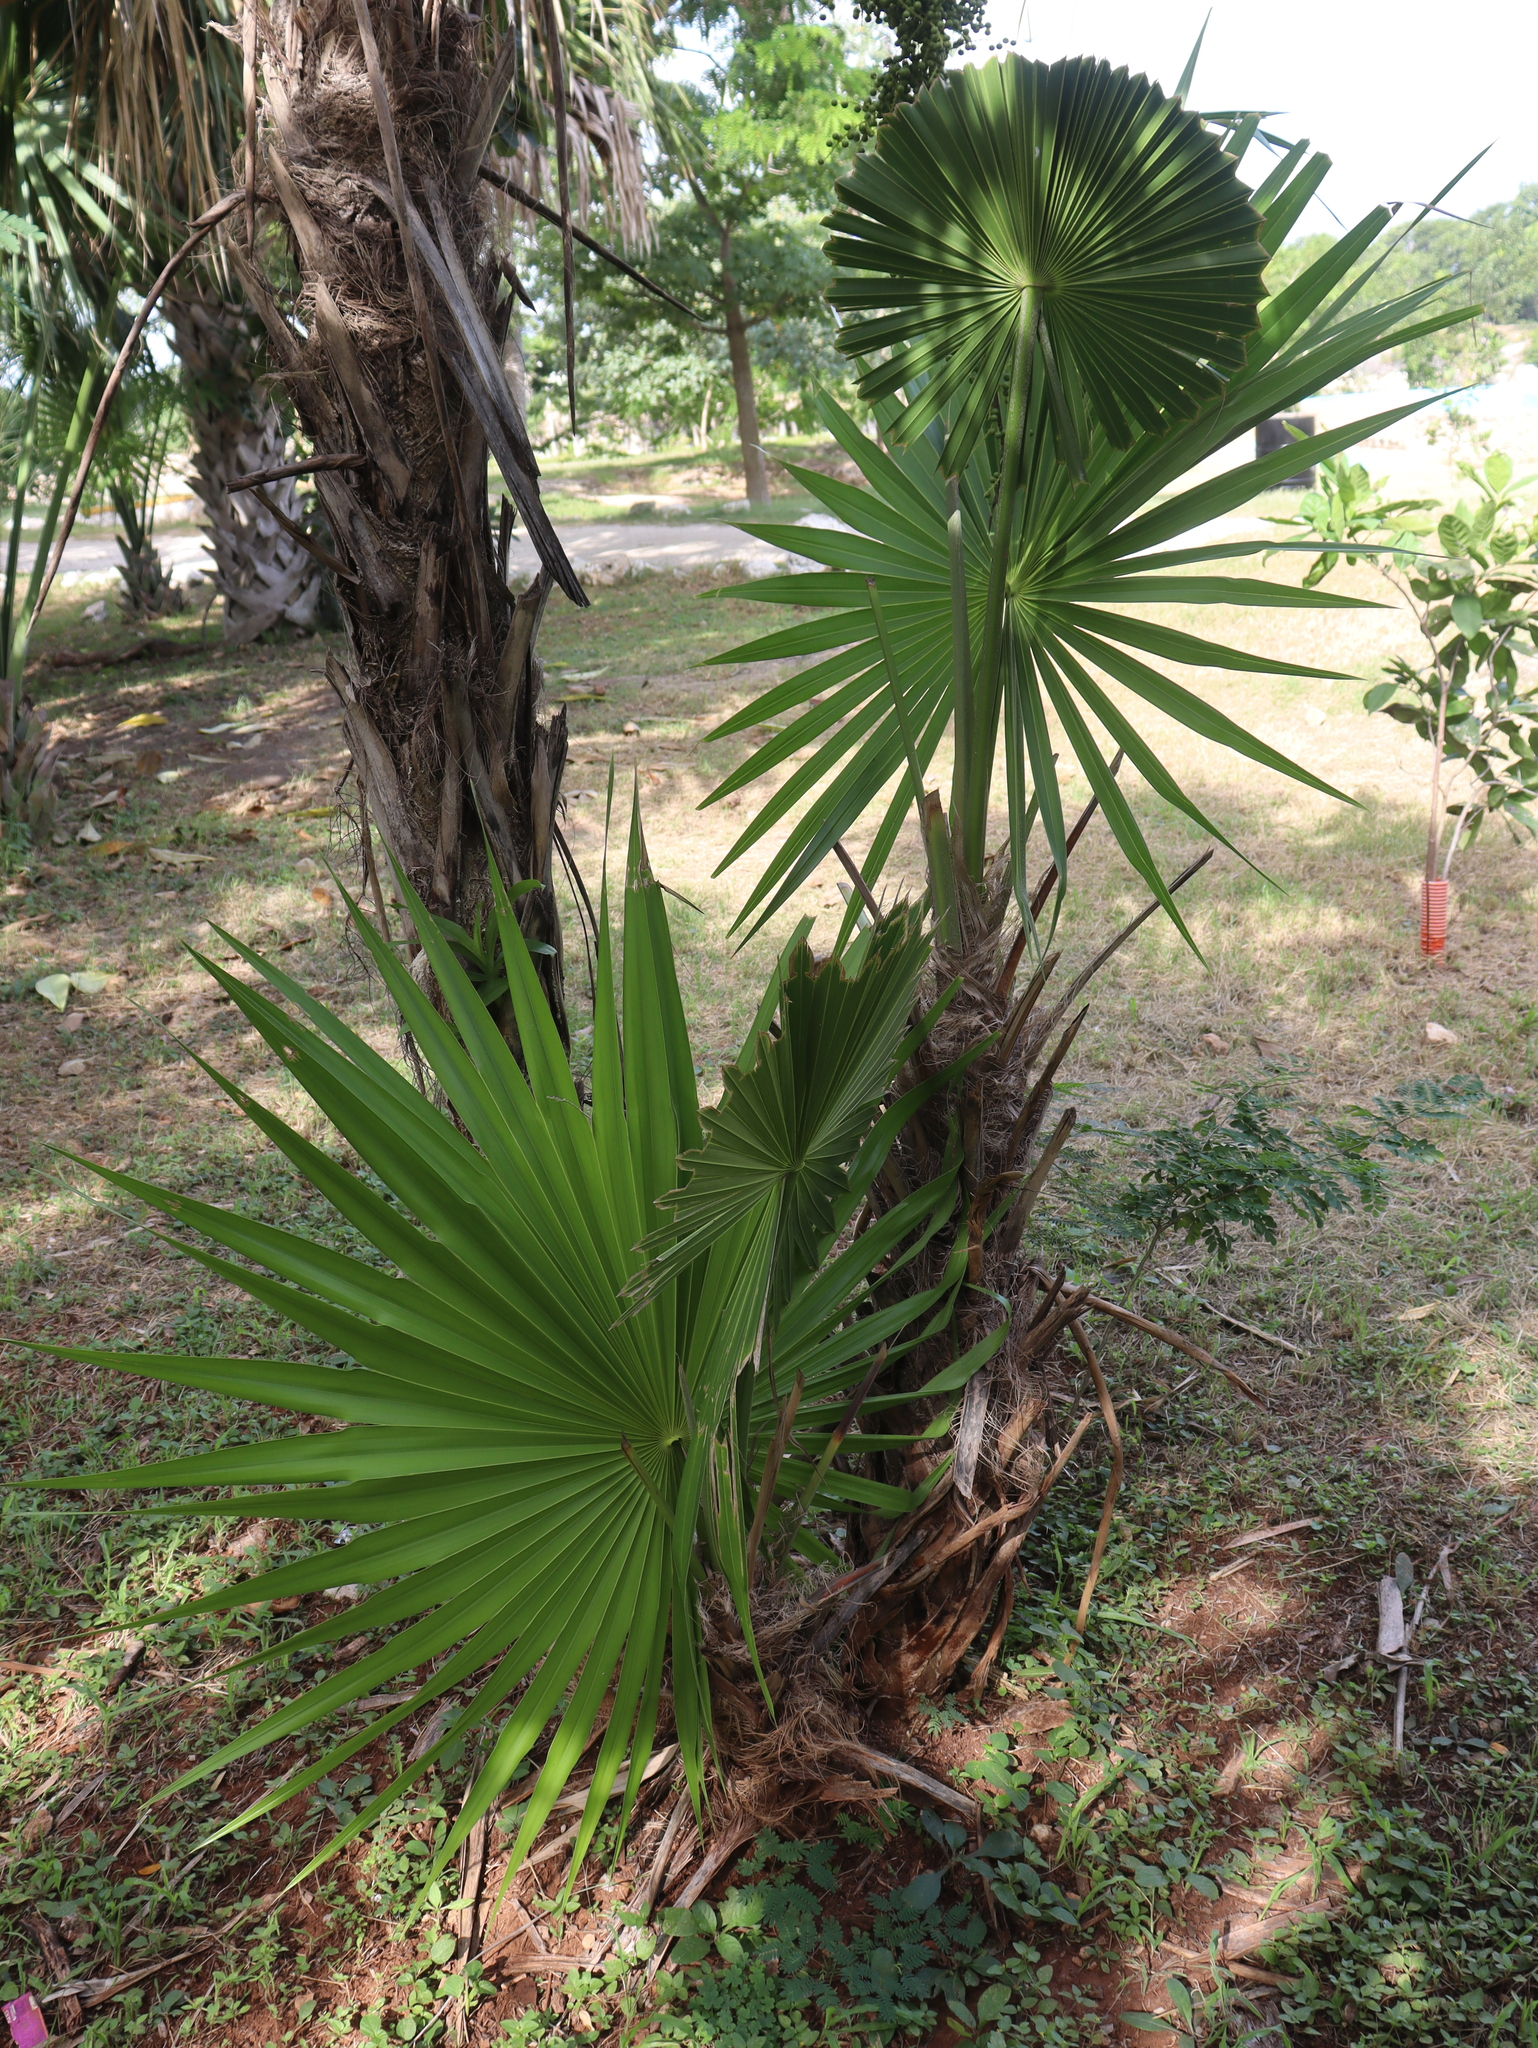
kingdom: Plantae
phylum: Tracheophyta
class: Liliopsida
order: Arecales
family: Arecaceae
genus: Thrinax
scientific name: Thrinax radiata
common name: Florida thatch
